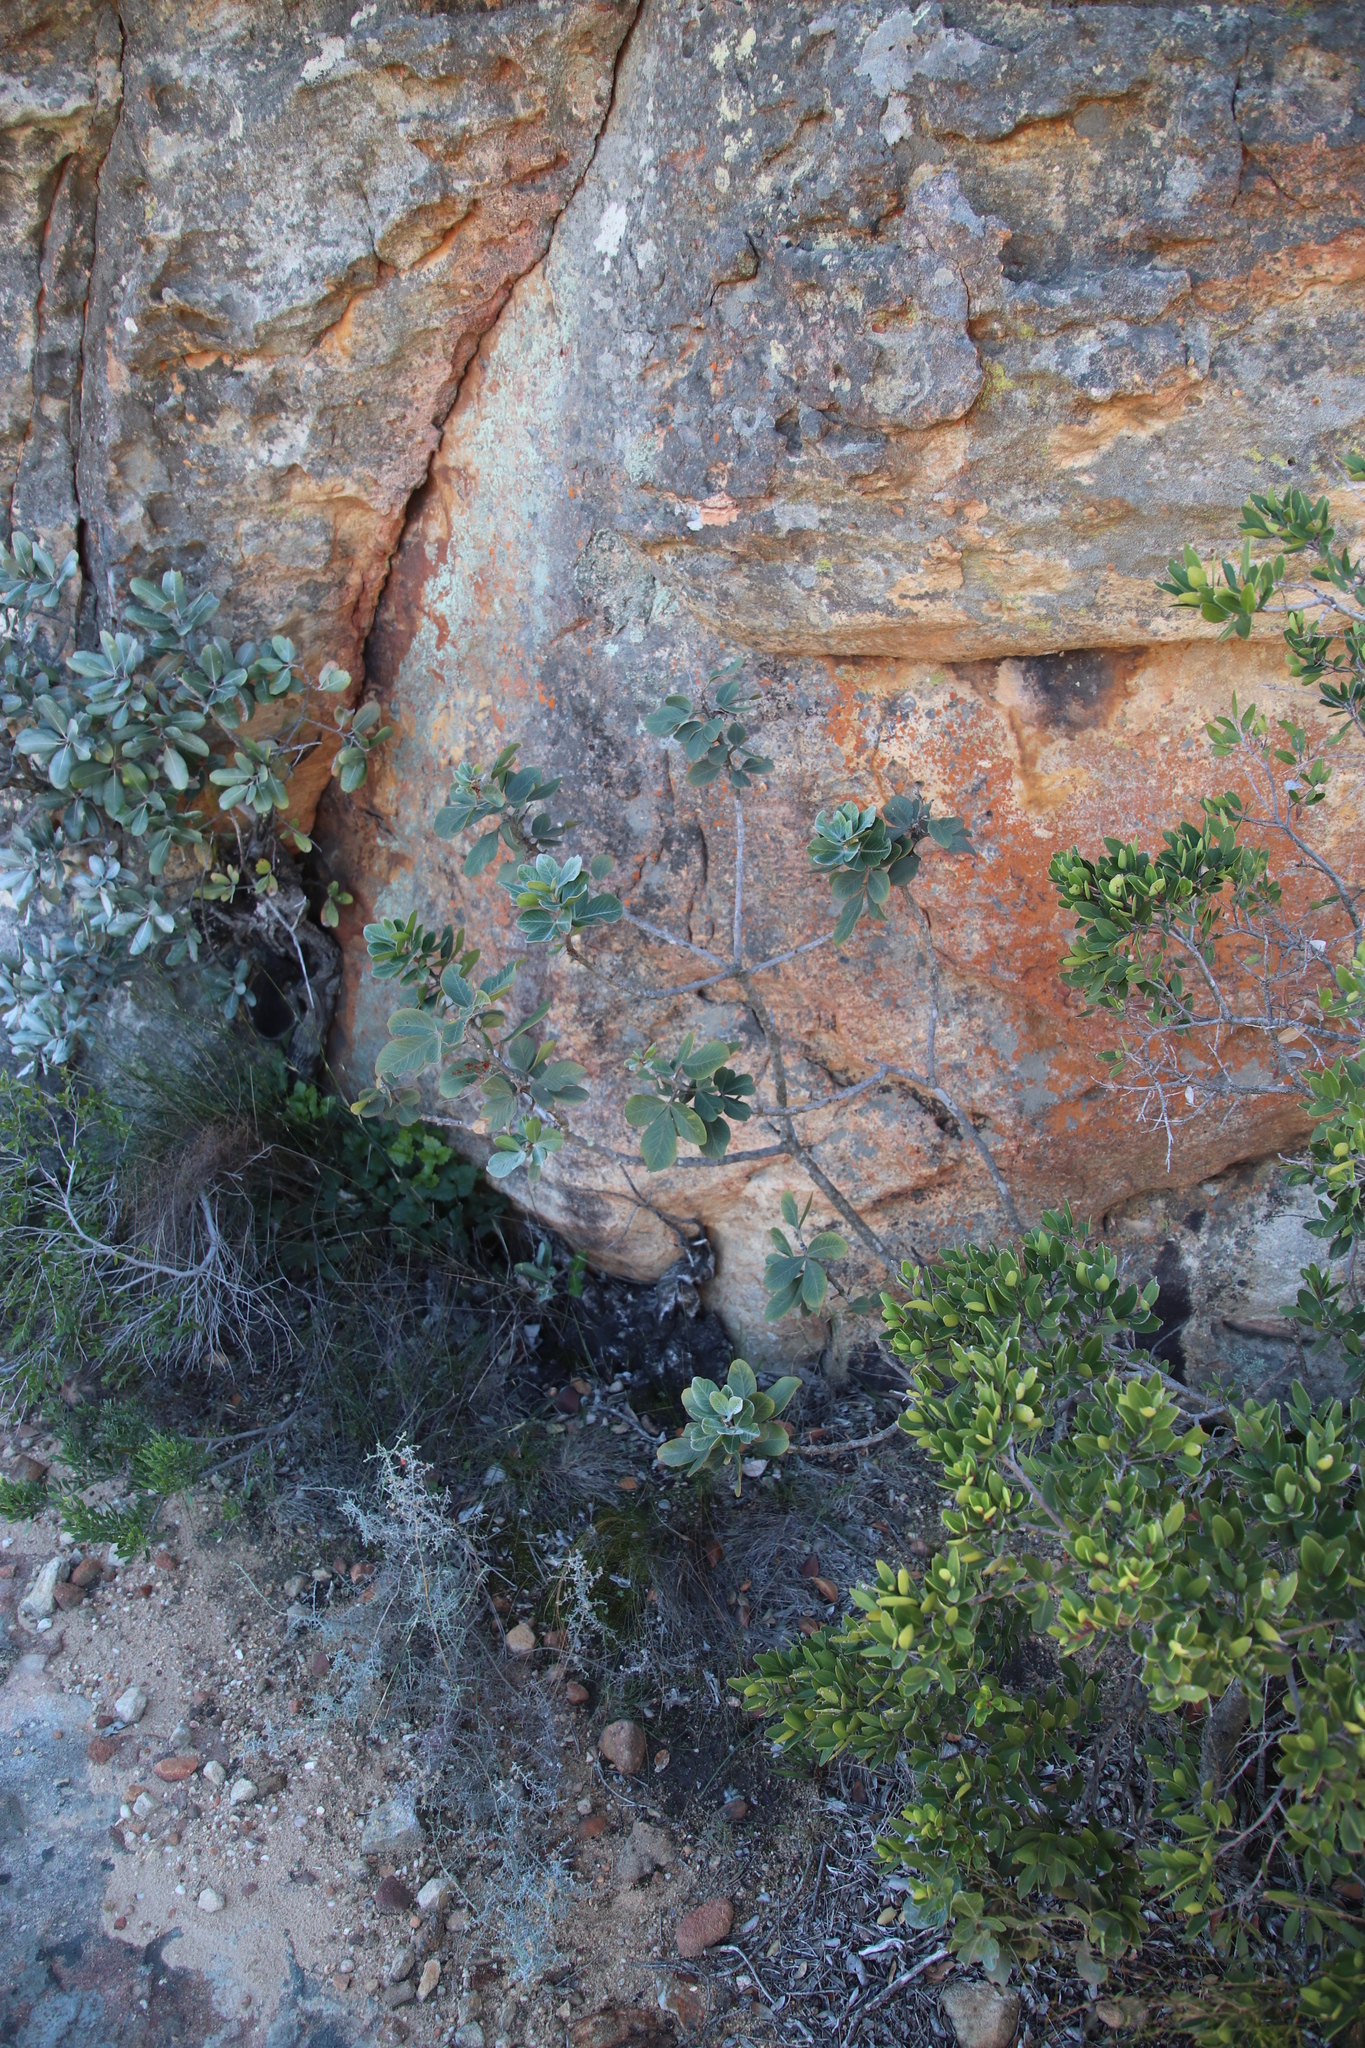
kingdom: Plantae
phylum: Tracheophyta
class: Magnoliopsida
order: Sapindales
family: Anacardiaceae
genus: Searsia
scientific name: Searsia scytophylla
